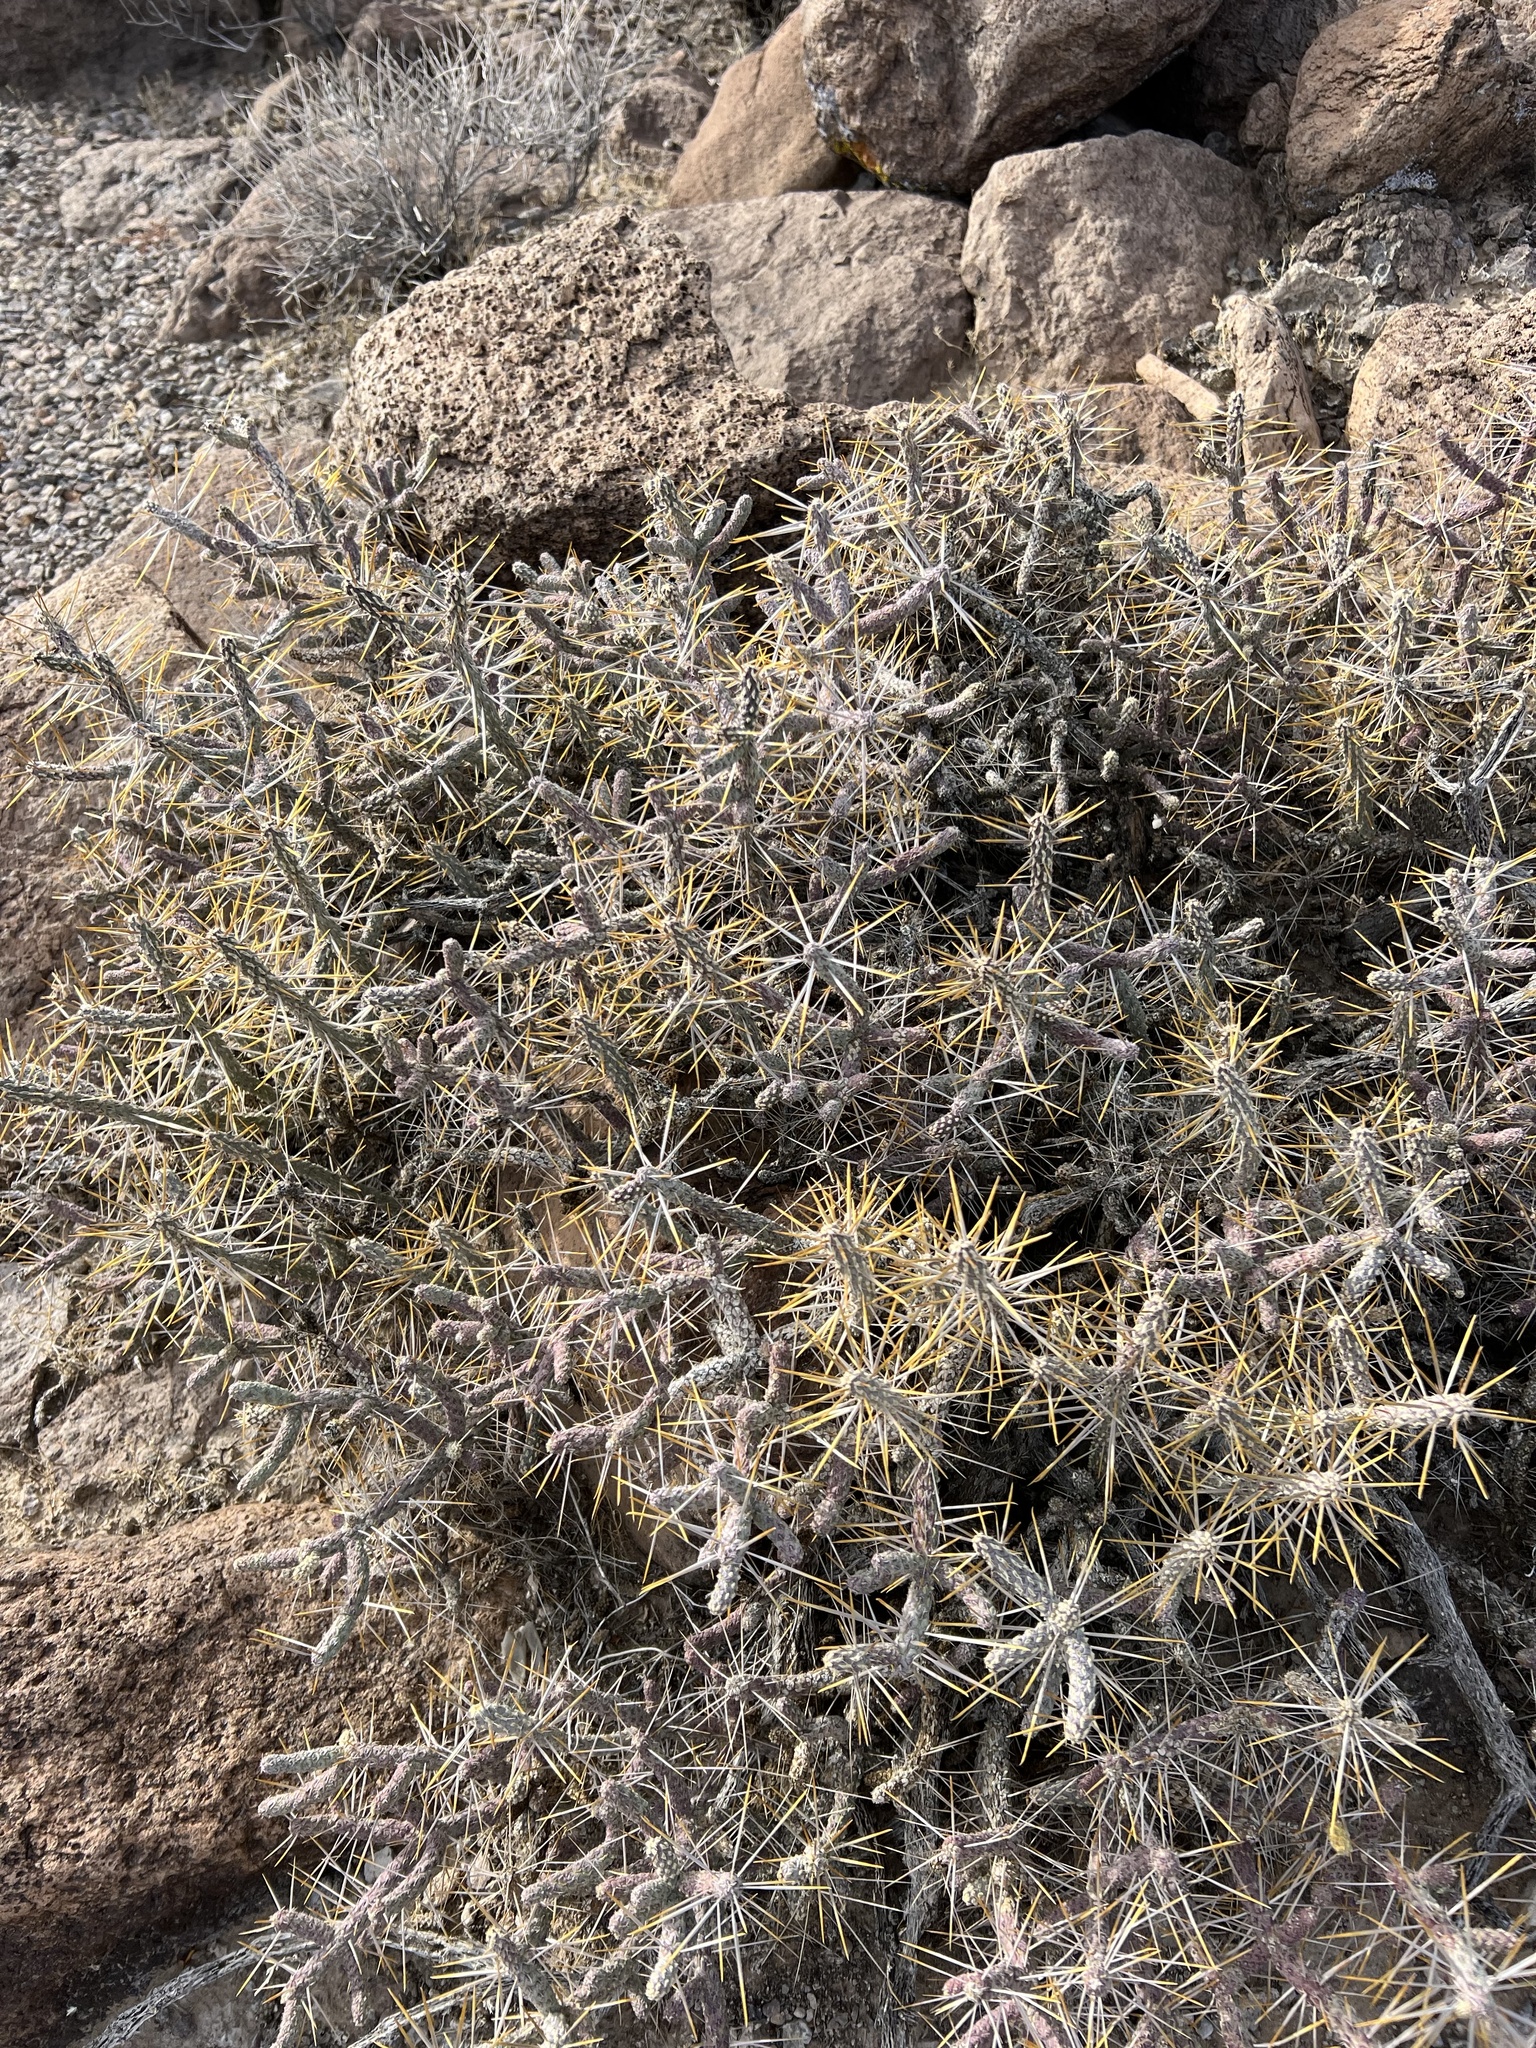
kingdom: Plantae
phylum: Tracheophyta
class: Magnoliopsida
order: Caryophyllales
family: Cactaceae
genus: Cylindropuntia
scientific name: Cylindropuntia ramosissima
